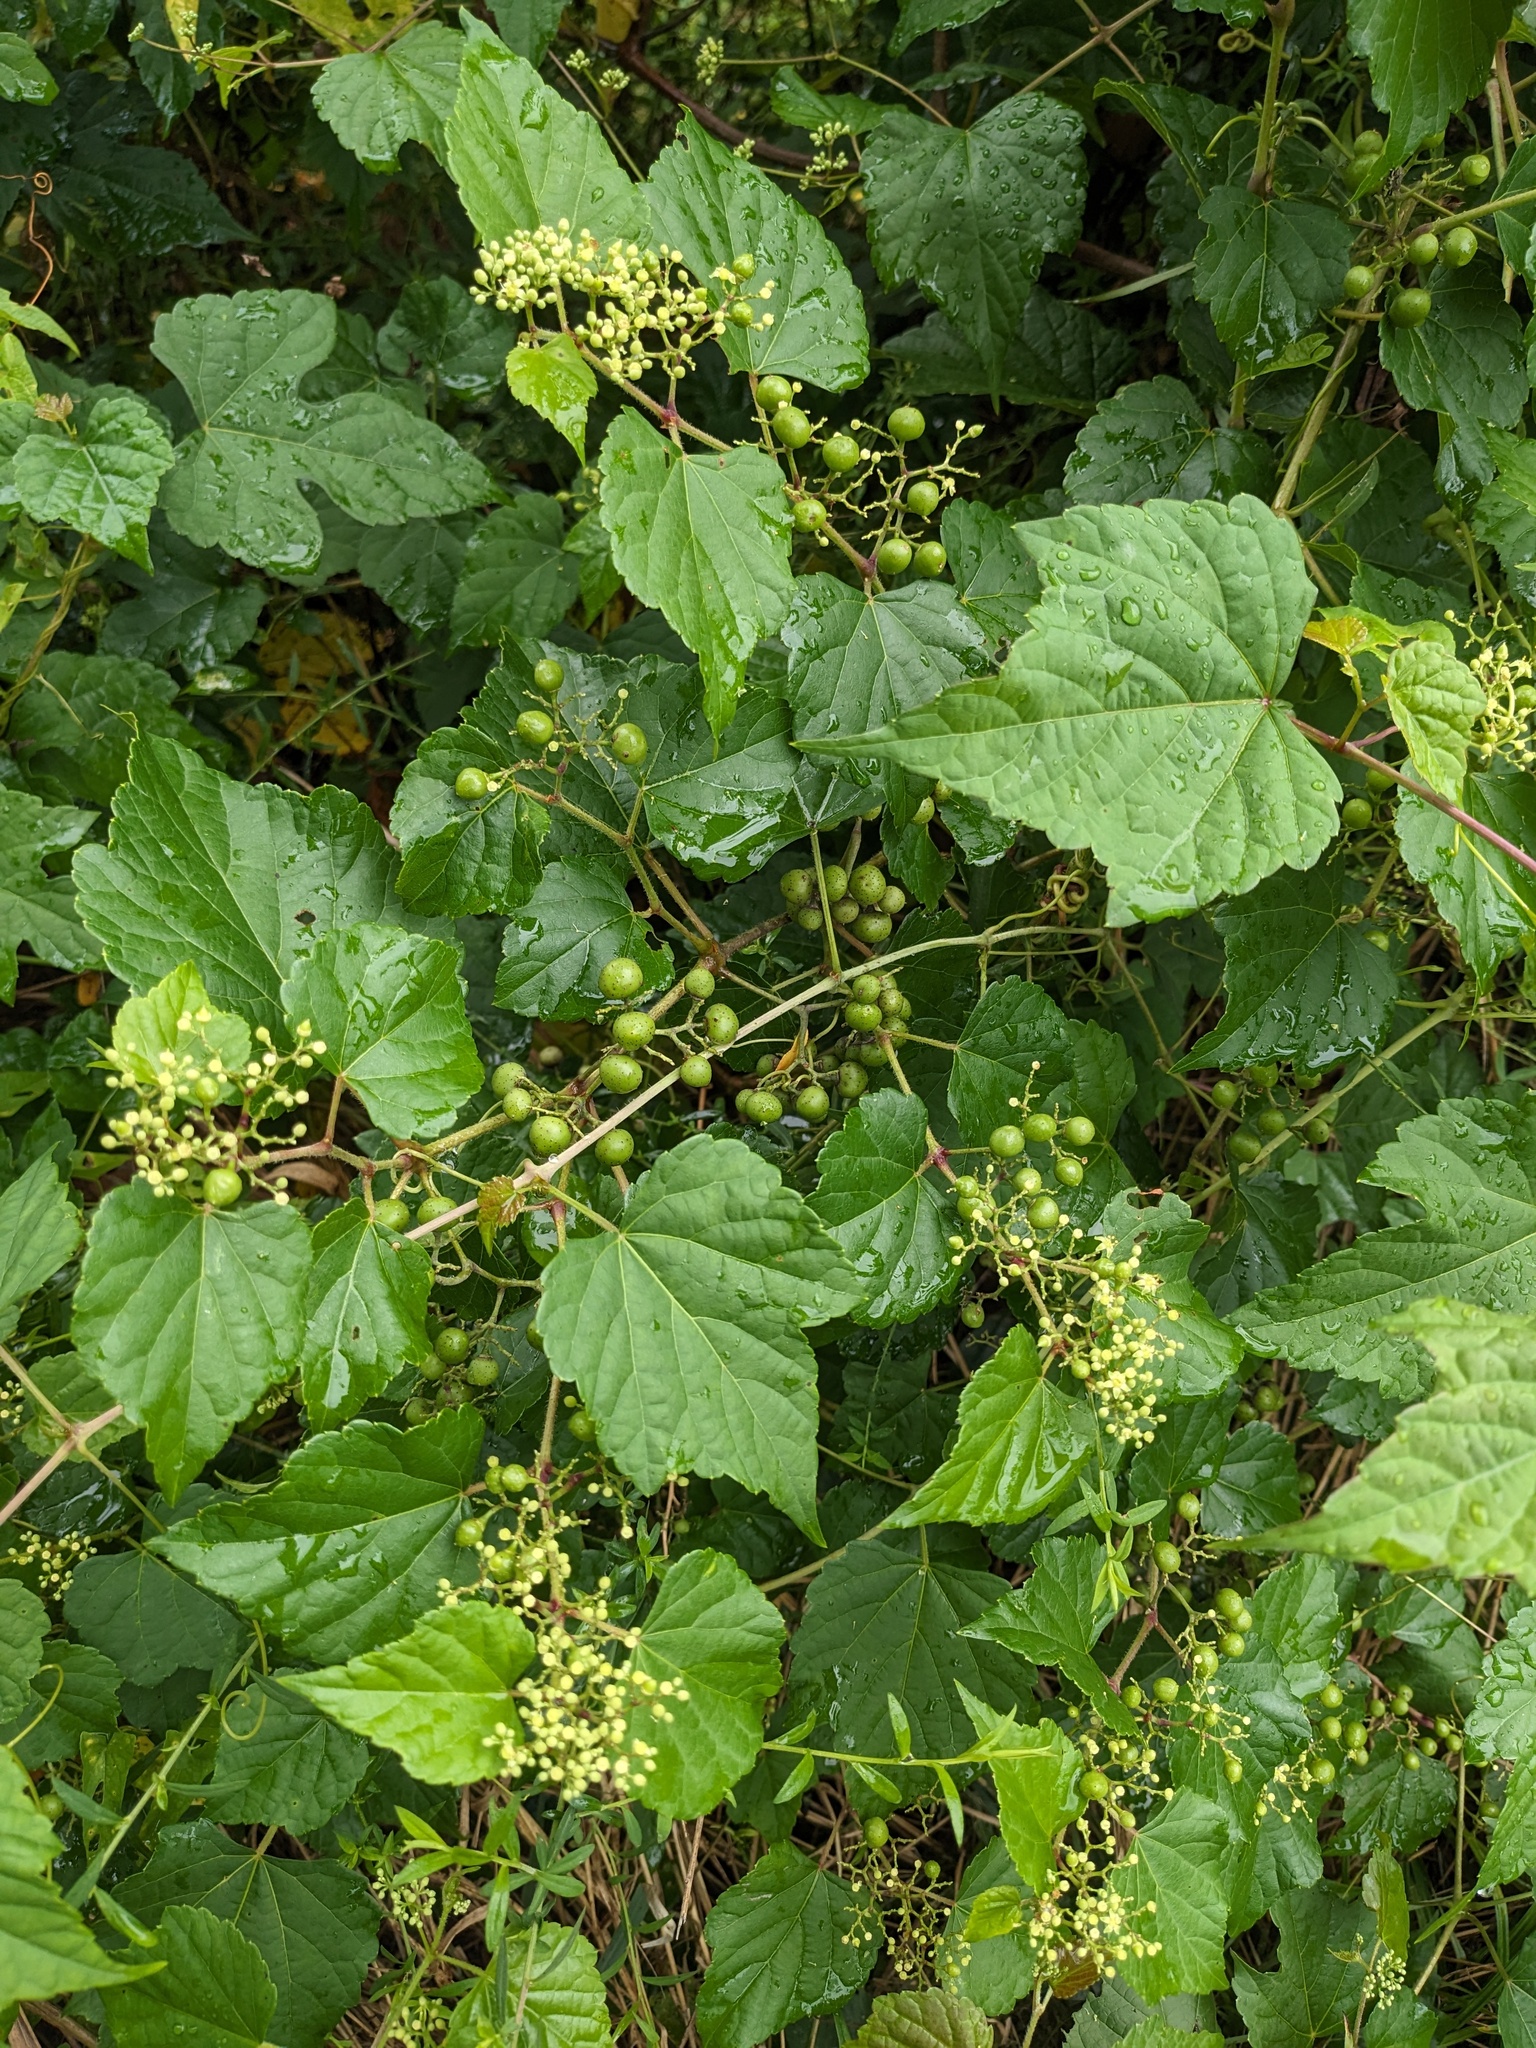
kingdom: Plantae
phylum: Tracheophyta
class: Magnoliopsida
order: Vitales
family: Vitaceae
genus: Ampelopsis
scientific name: Ampelopsis glandulosa
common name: Amur peppervine
